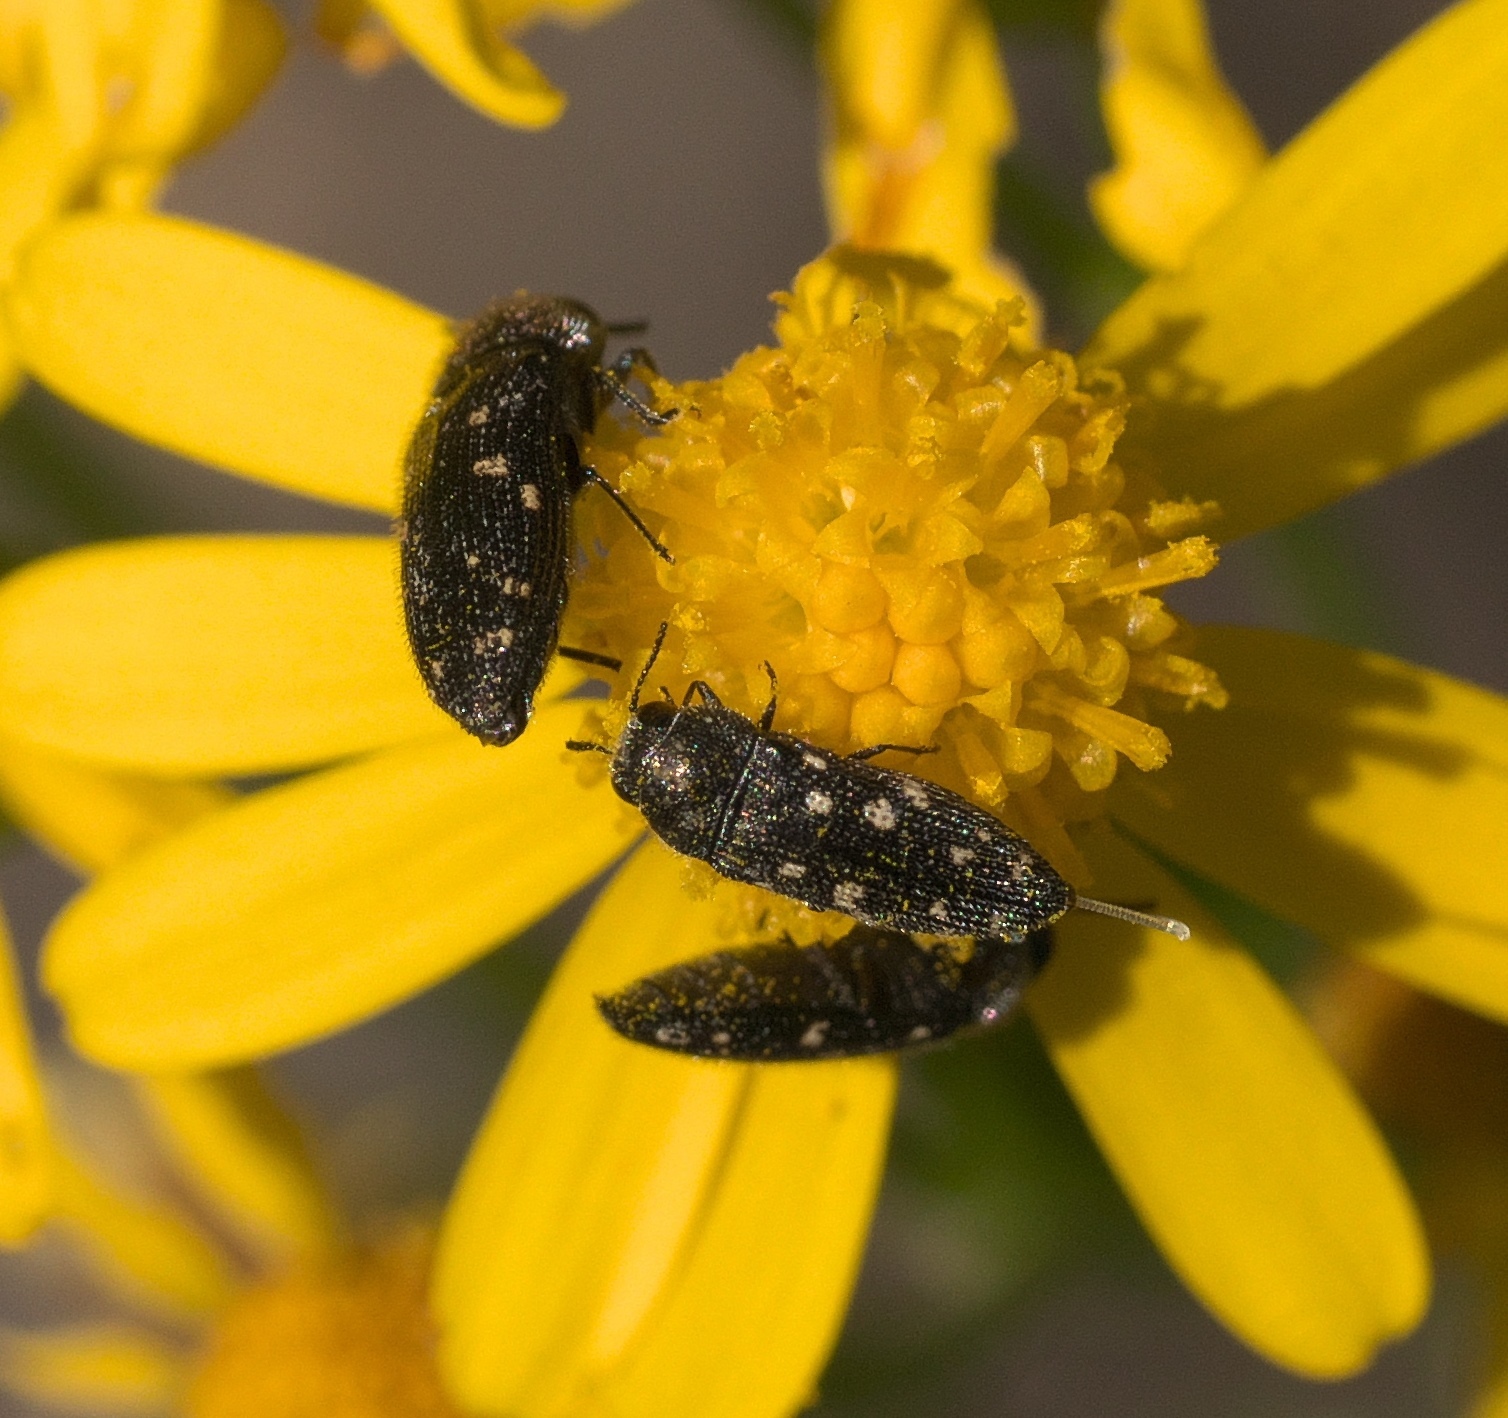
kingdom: Animalia
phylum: Arthropoda
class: Insecta
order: Coleoptera
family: Buprestidae
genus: Acmaeodera
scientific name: Acmaeodera tubulus
